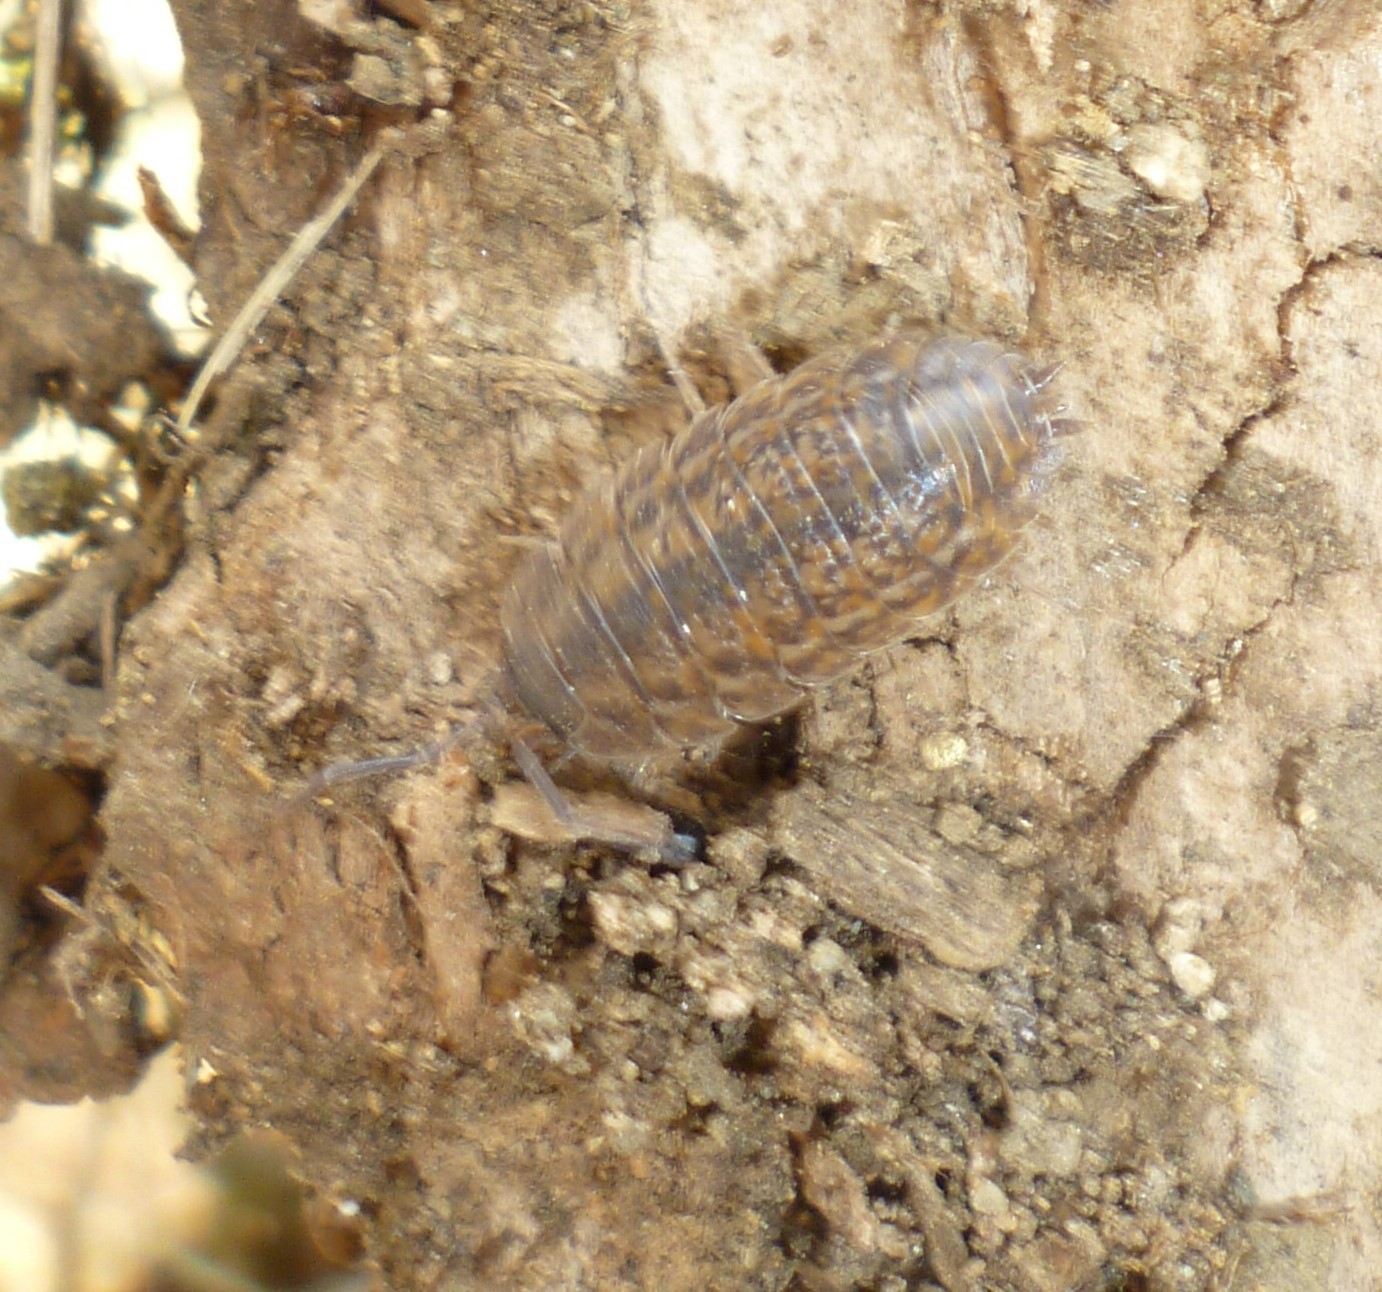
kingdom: Animalia
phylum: Arthropoda
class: Malacostraca
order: Isopoda
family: Trachelipodidae
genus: Trachelipus
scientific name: Trachelipus rathkii
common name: Isopod
